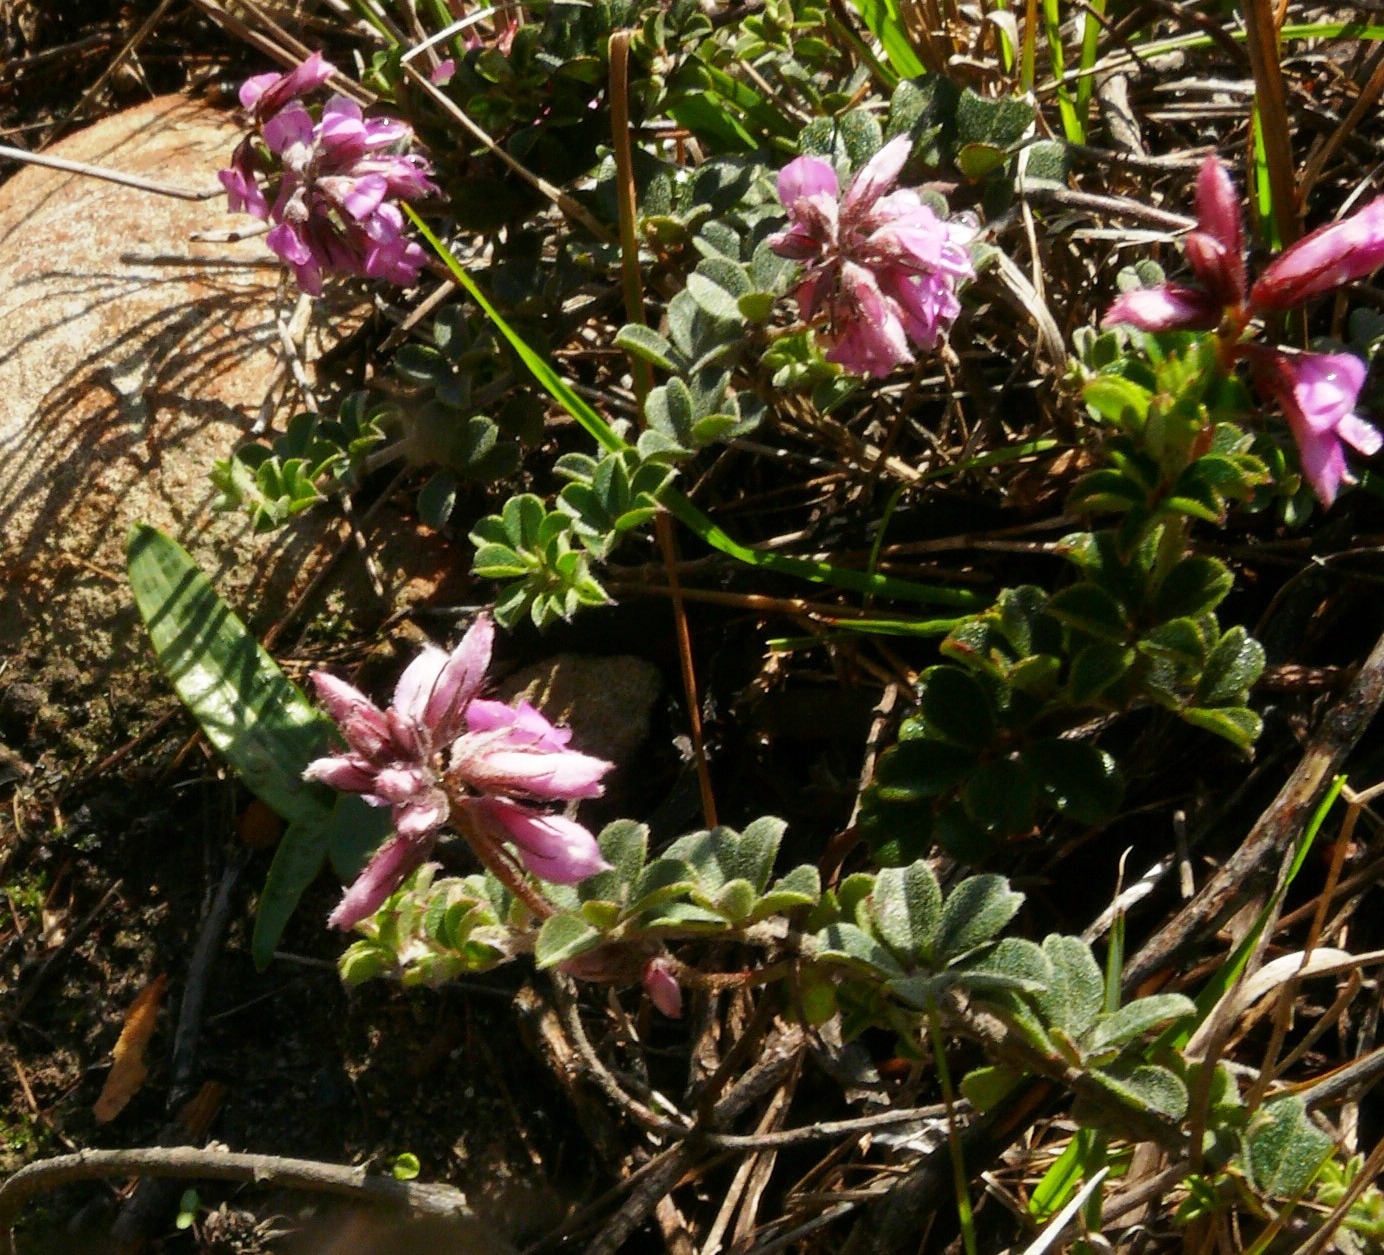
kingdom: Plantae
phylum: Tracheophyta
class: Magnoliopsida
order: Fabales
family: Fabaceae
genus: Indigofera
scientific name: Indigofera mauritanica
